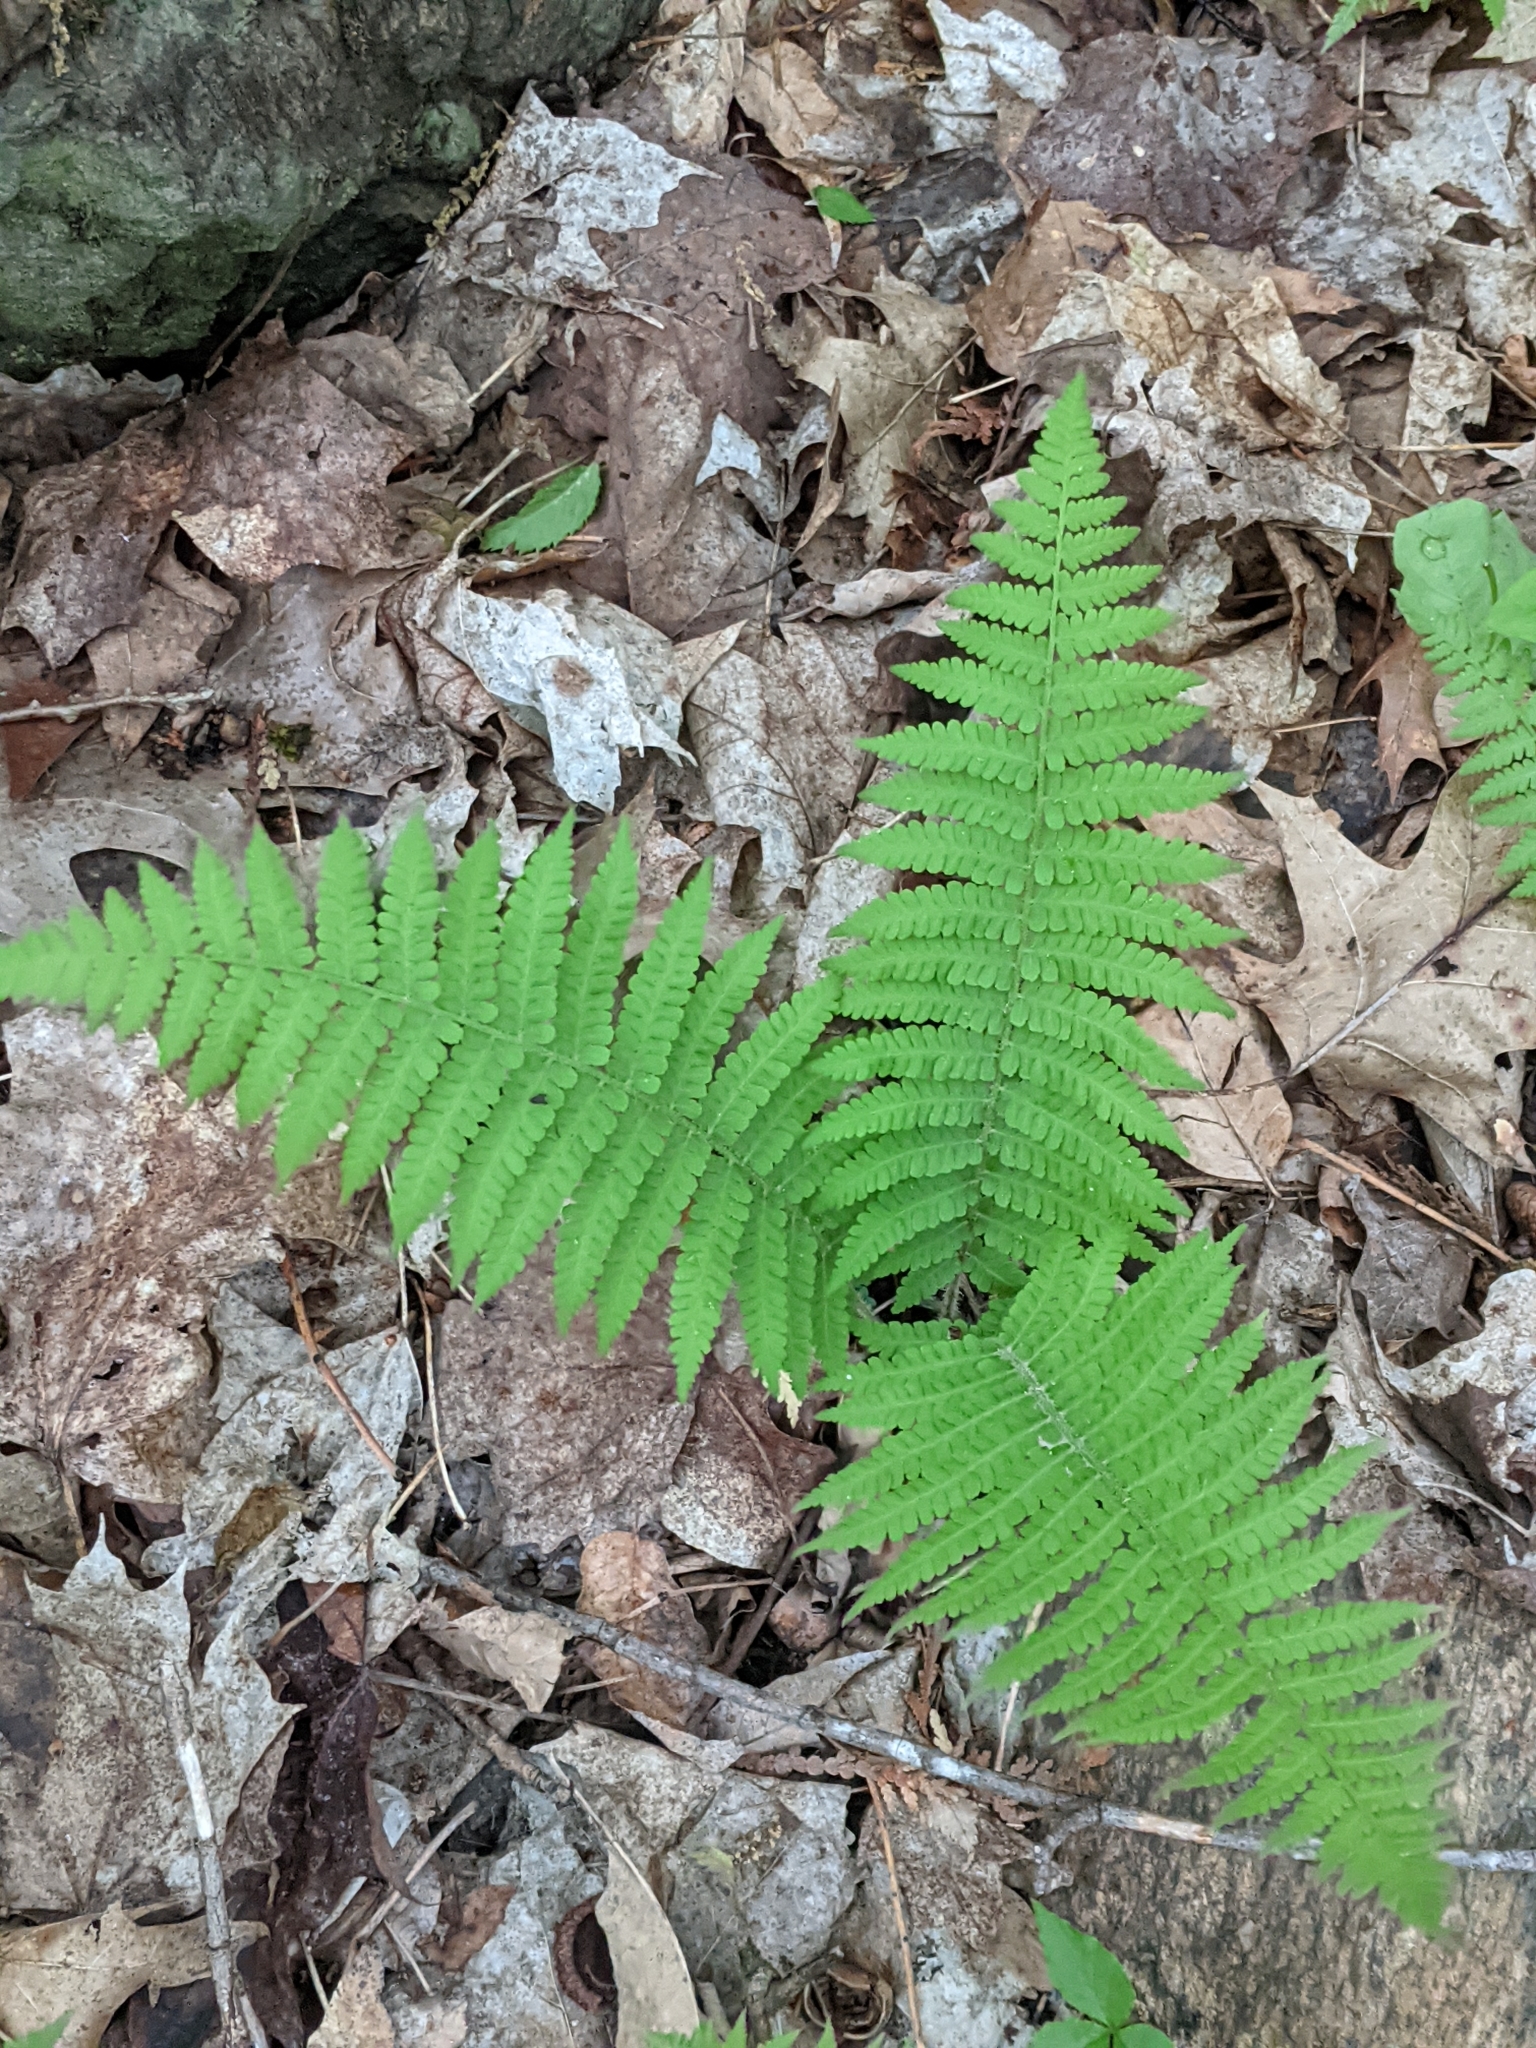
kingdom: Plantae
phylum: Tracheophyta
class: Polypodiopsida
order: Polypodiales
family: Athyriaceae
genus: Deparia
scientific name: Deparia acrostichoides
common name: Silver false spleenwort
